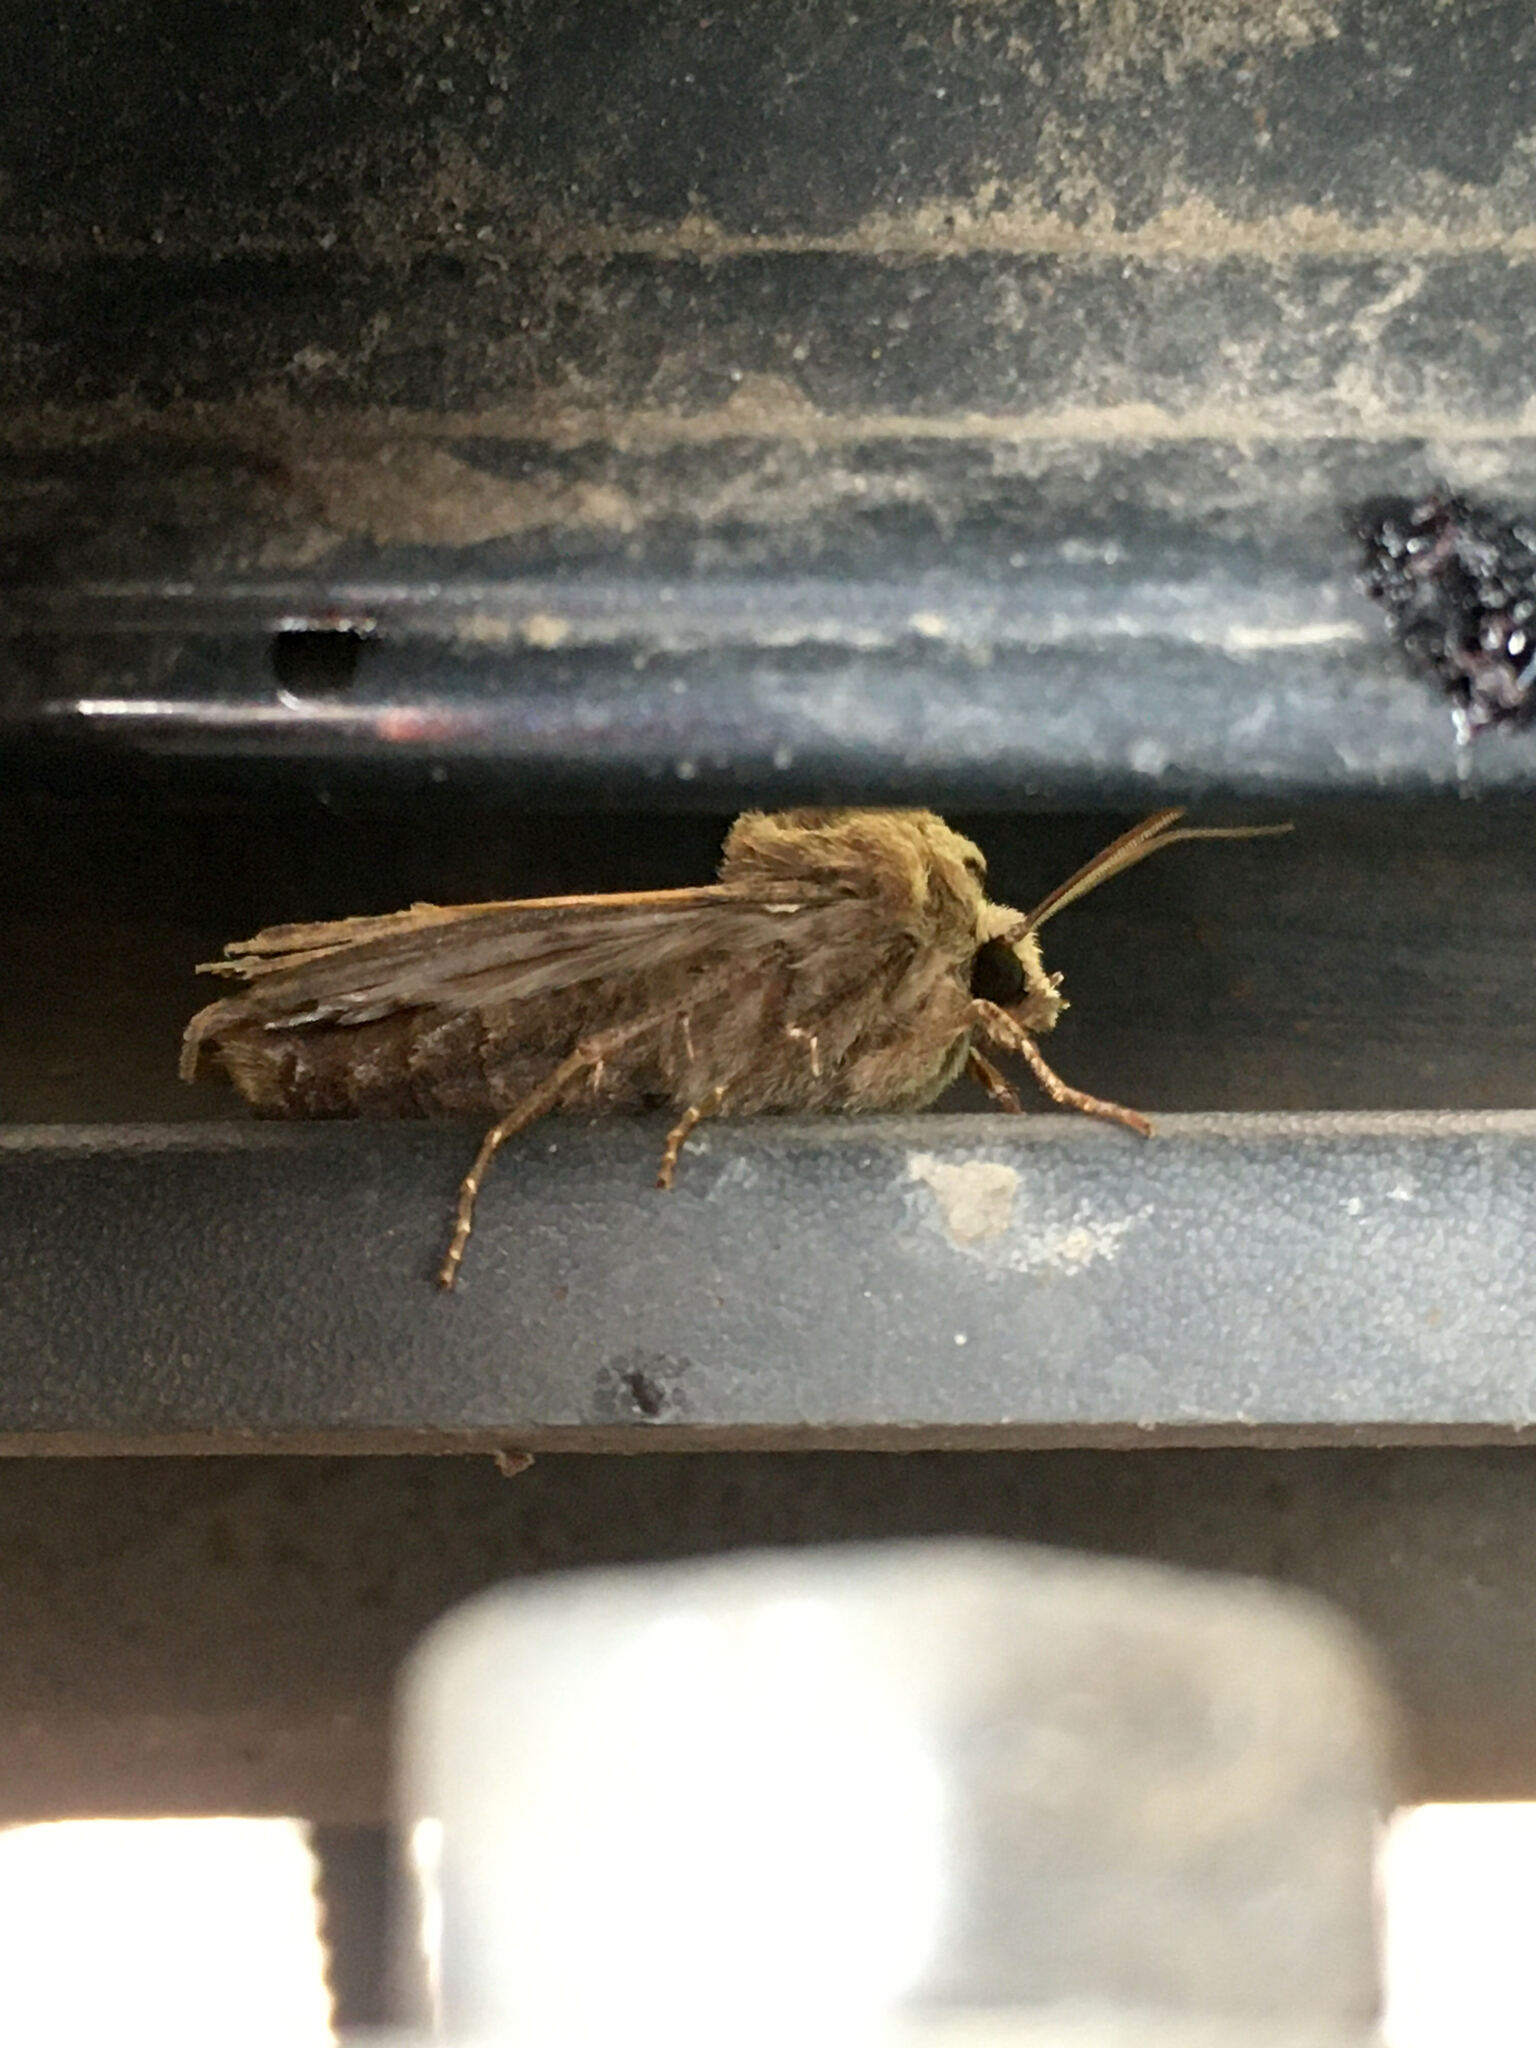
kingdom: Animalia
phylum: Arthropoda
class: Insecta
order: Lepidoptera
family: Noctuidae
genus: Agrotis
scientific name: Agrotis exclamationis
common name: Heart and dart
